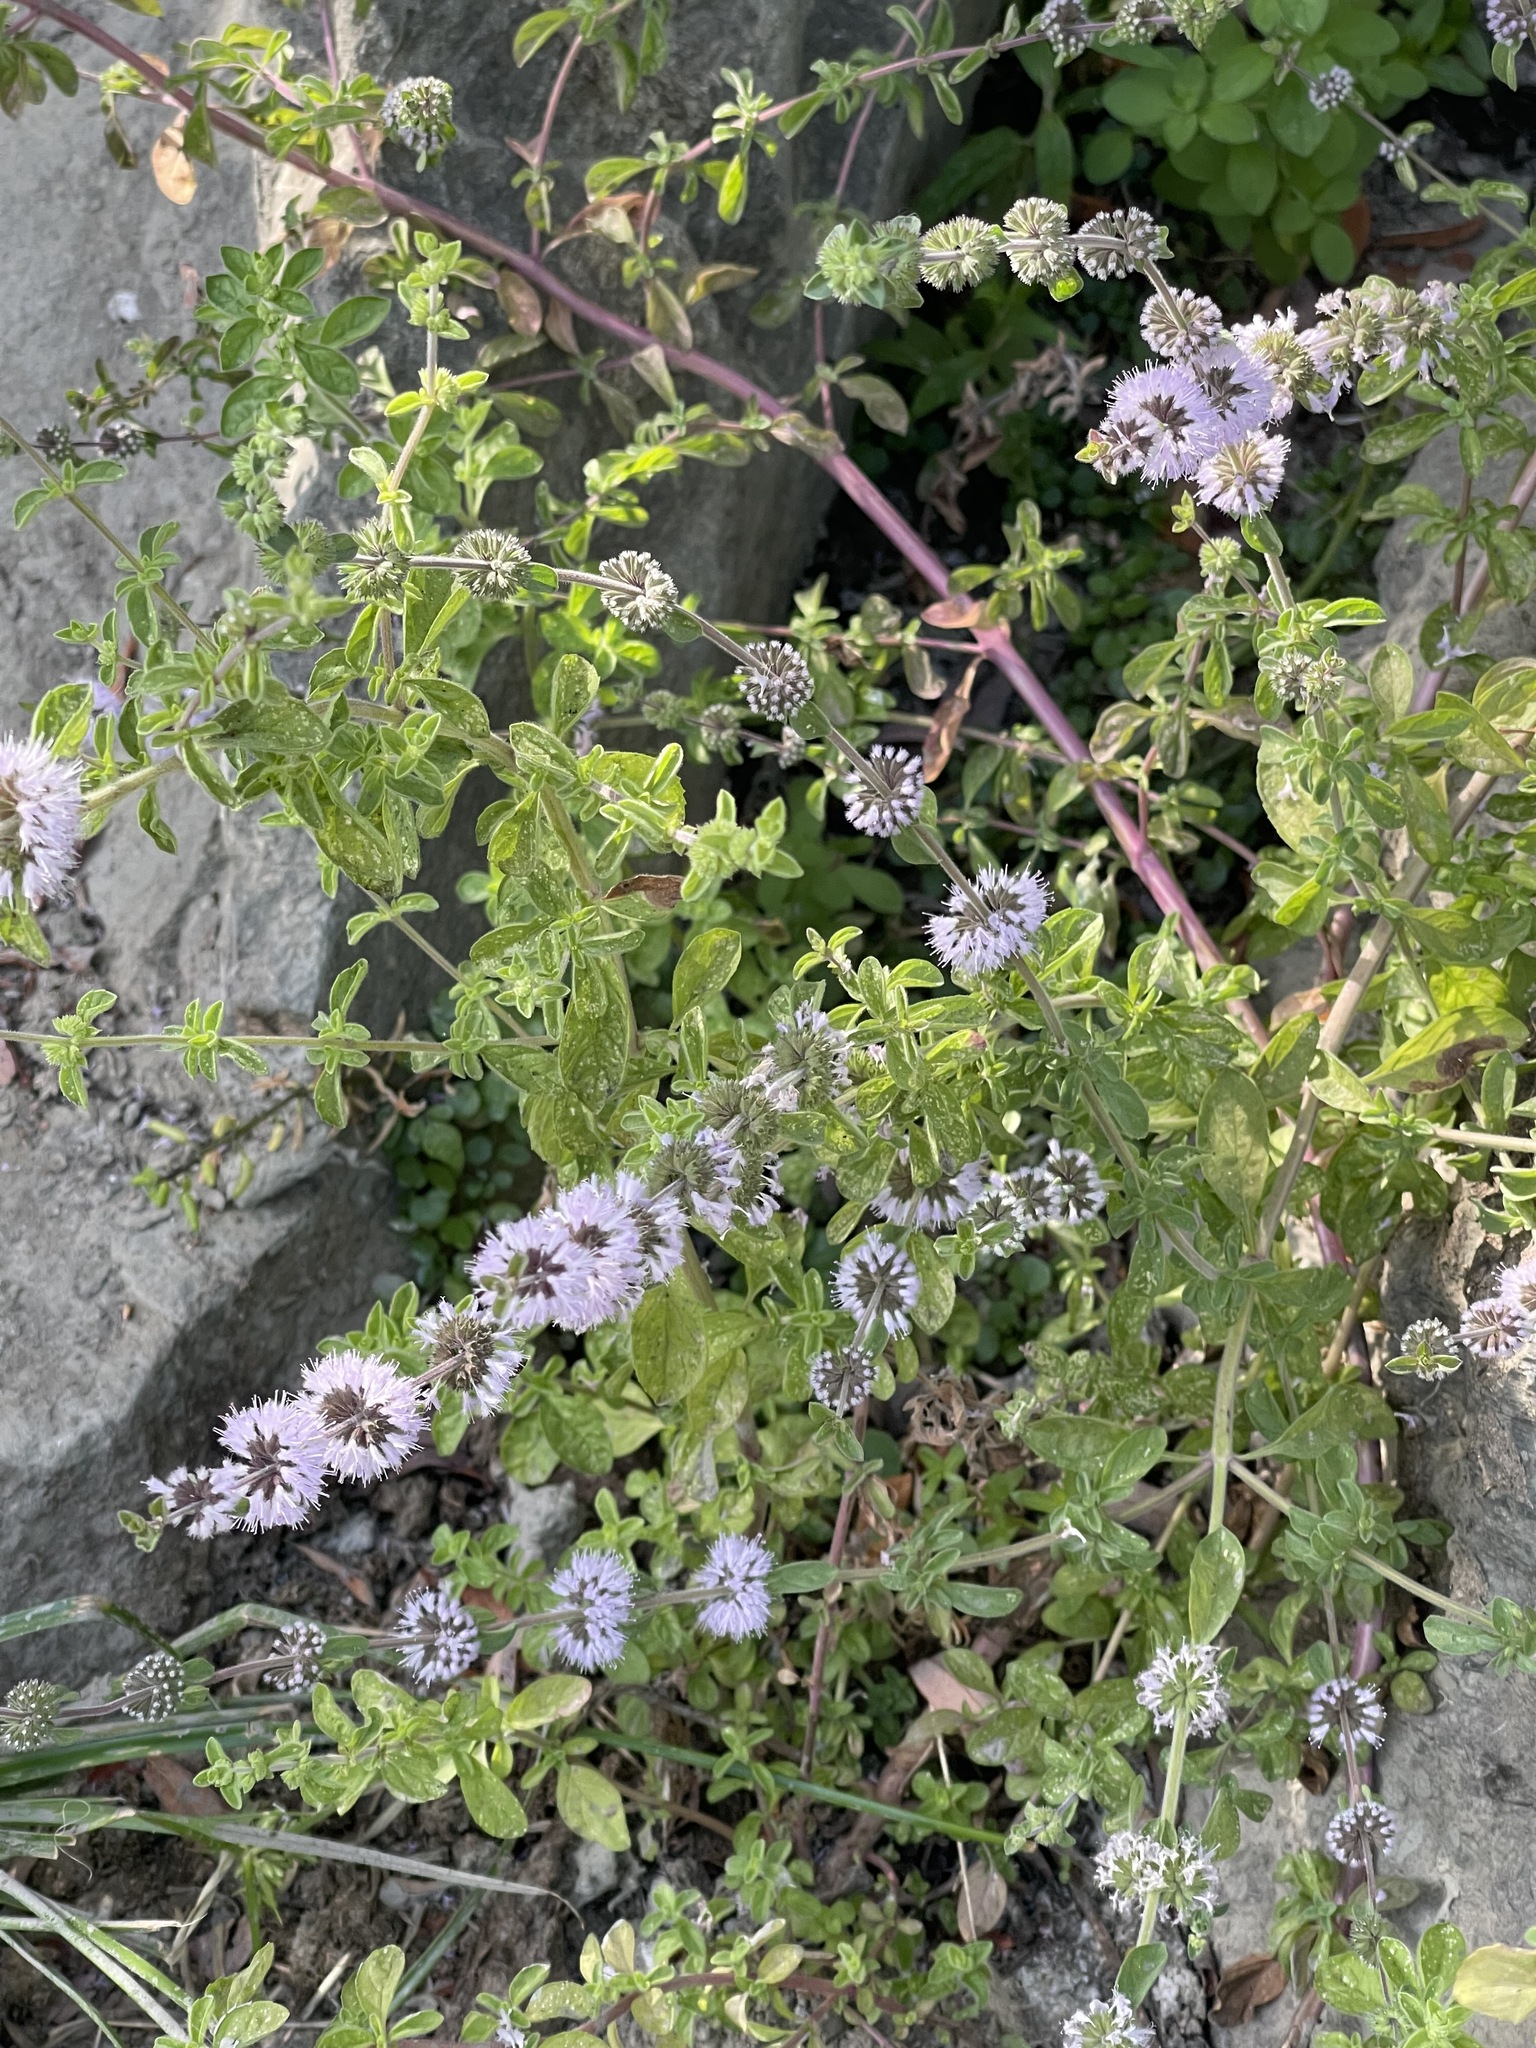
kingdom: Plantae
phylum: Tracheophyta
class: Magnoliopsida
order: Lamiales
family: Lamiaceae
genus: Mentha
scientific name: Mentha pulegium
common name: Pennyroyal
